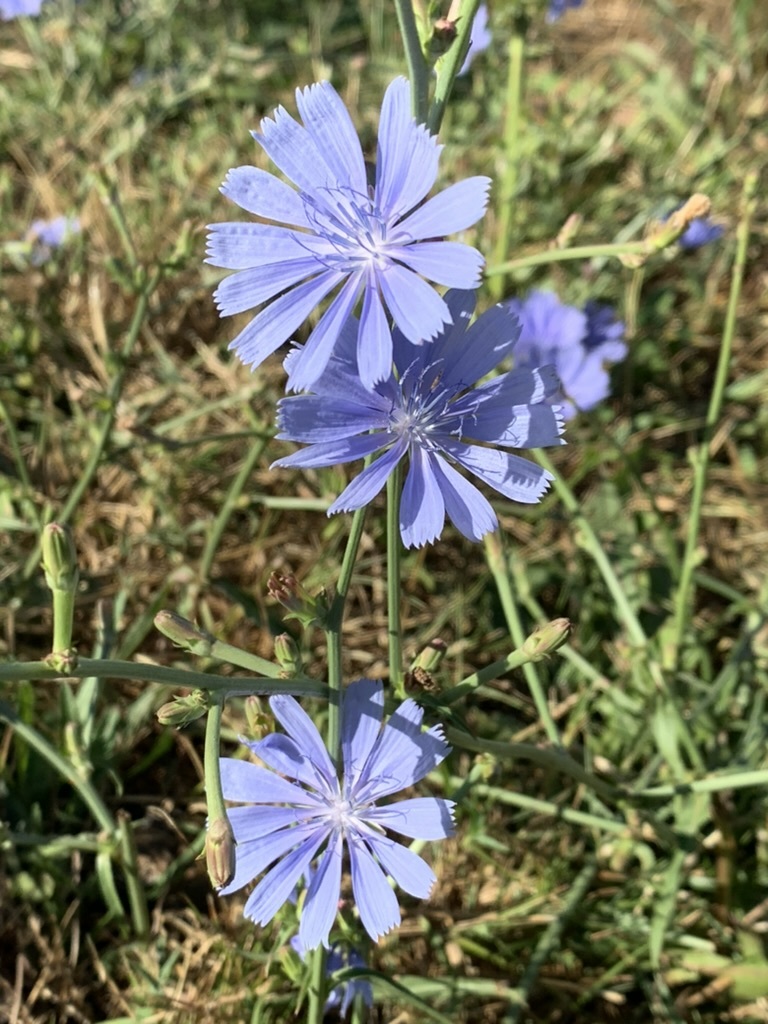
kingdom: Plantae
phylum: Tracheophyta
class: Magnoliopsida
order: Asterales
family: Asteraceae
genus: Cichorium
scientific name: Cichorium intybus
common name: Chicory
